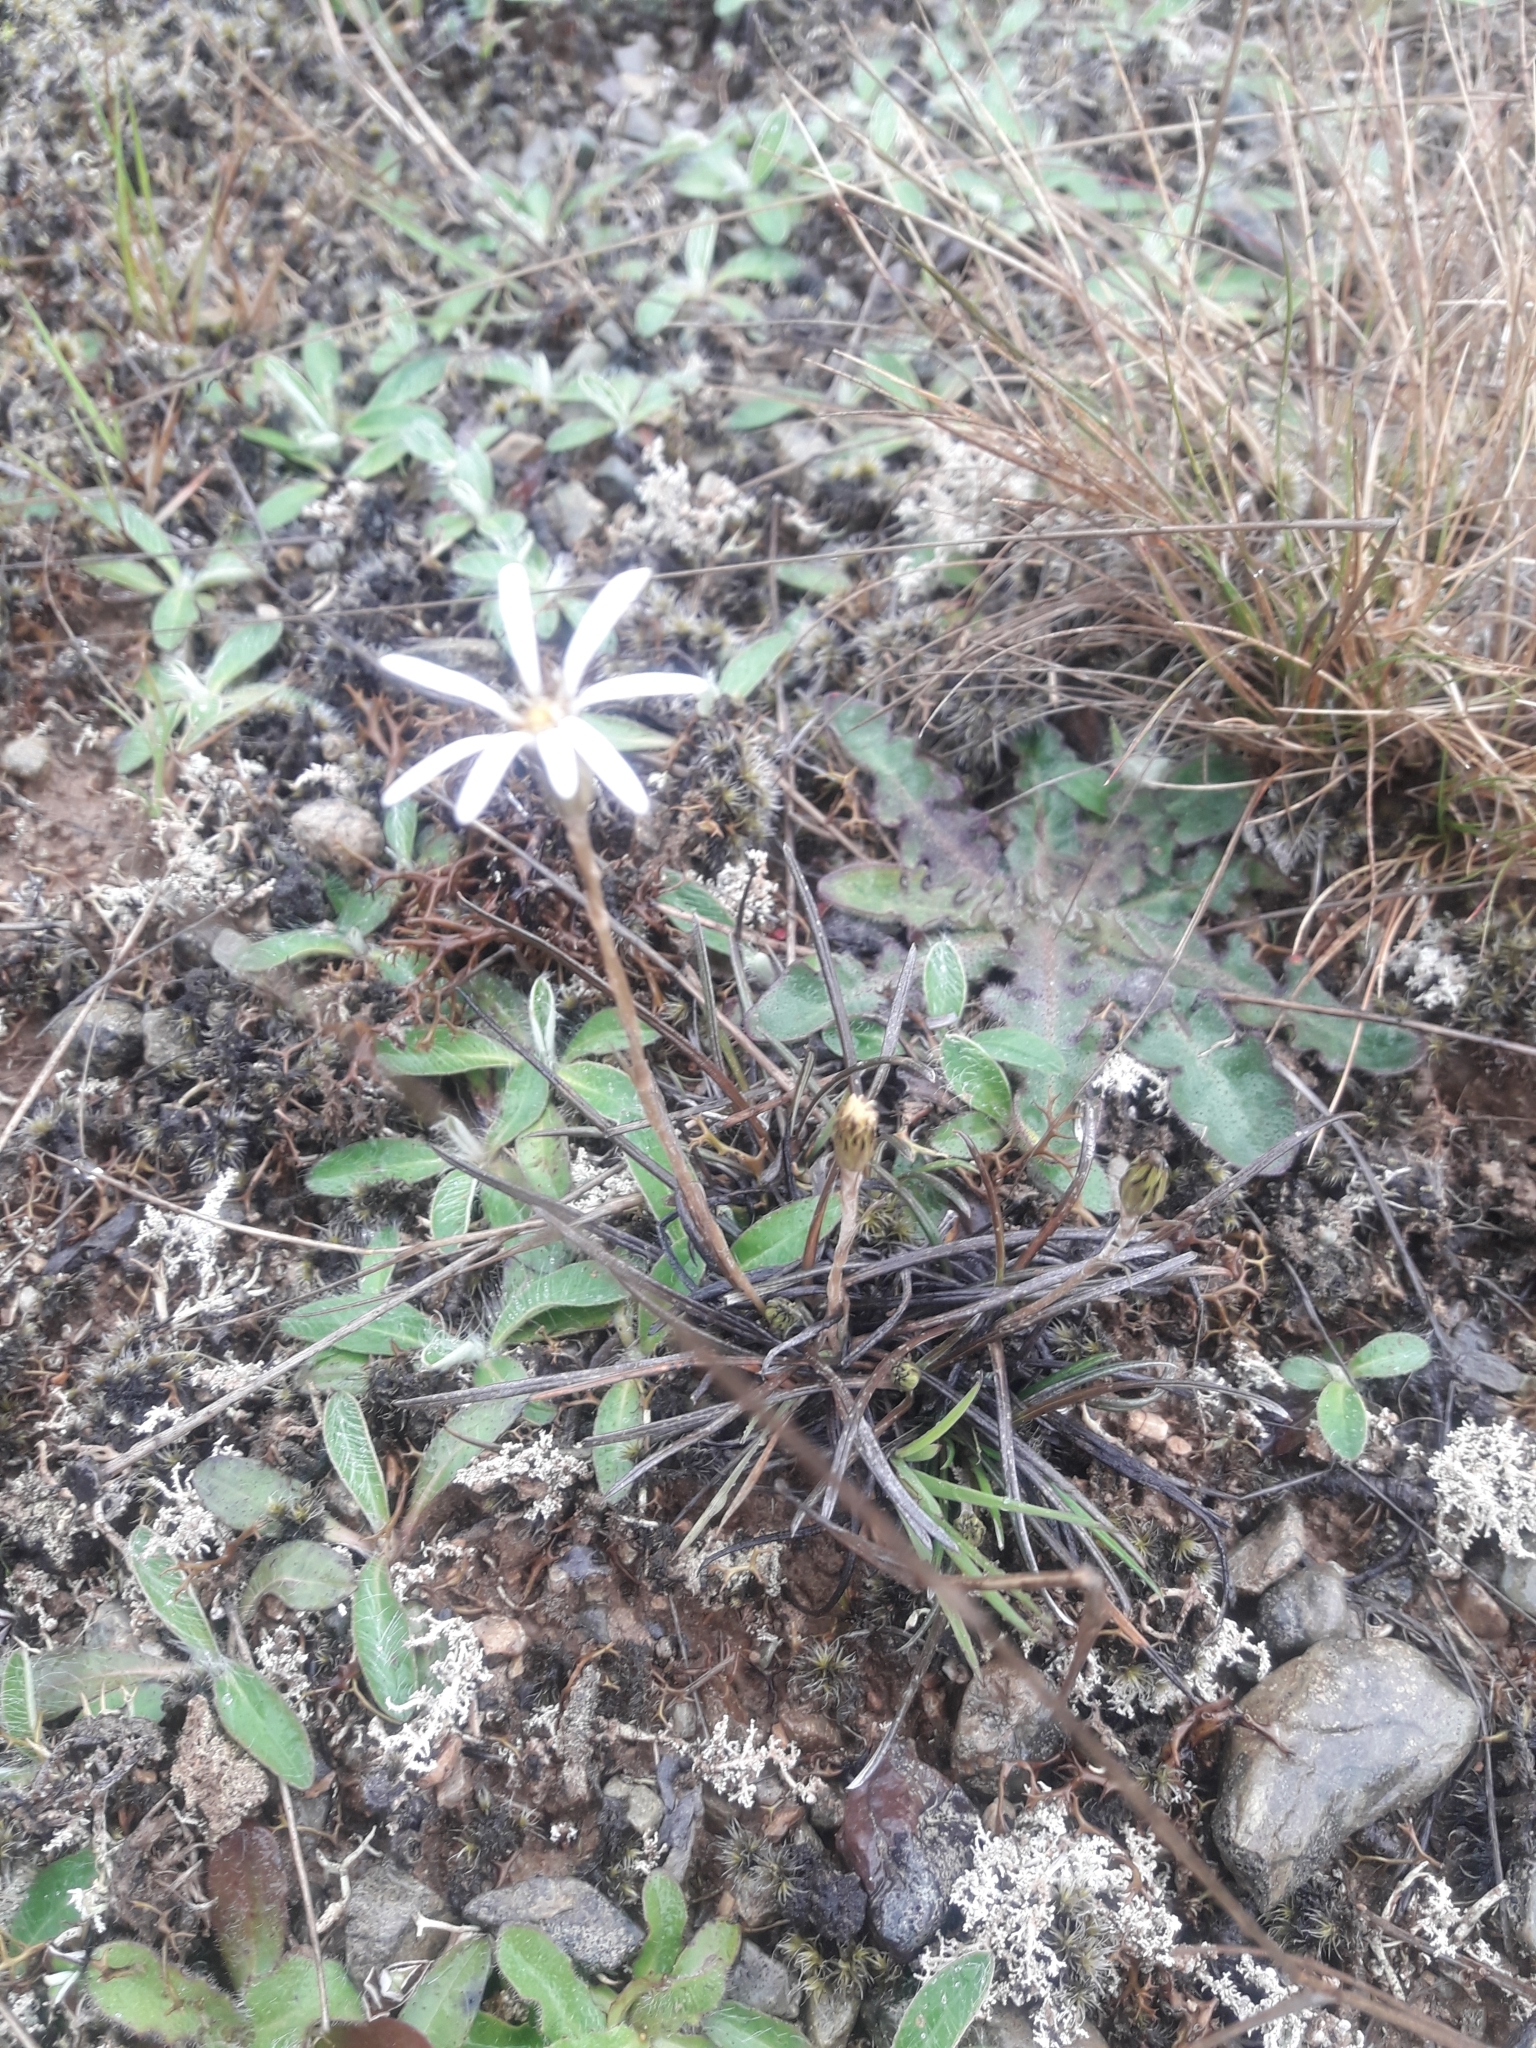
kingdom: Plantae
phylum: Tracheophyta
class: Magnoliopsida
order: Asterales
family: Asteraceae
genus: Celmisia
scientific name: Celmisia gracilenta
